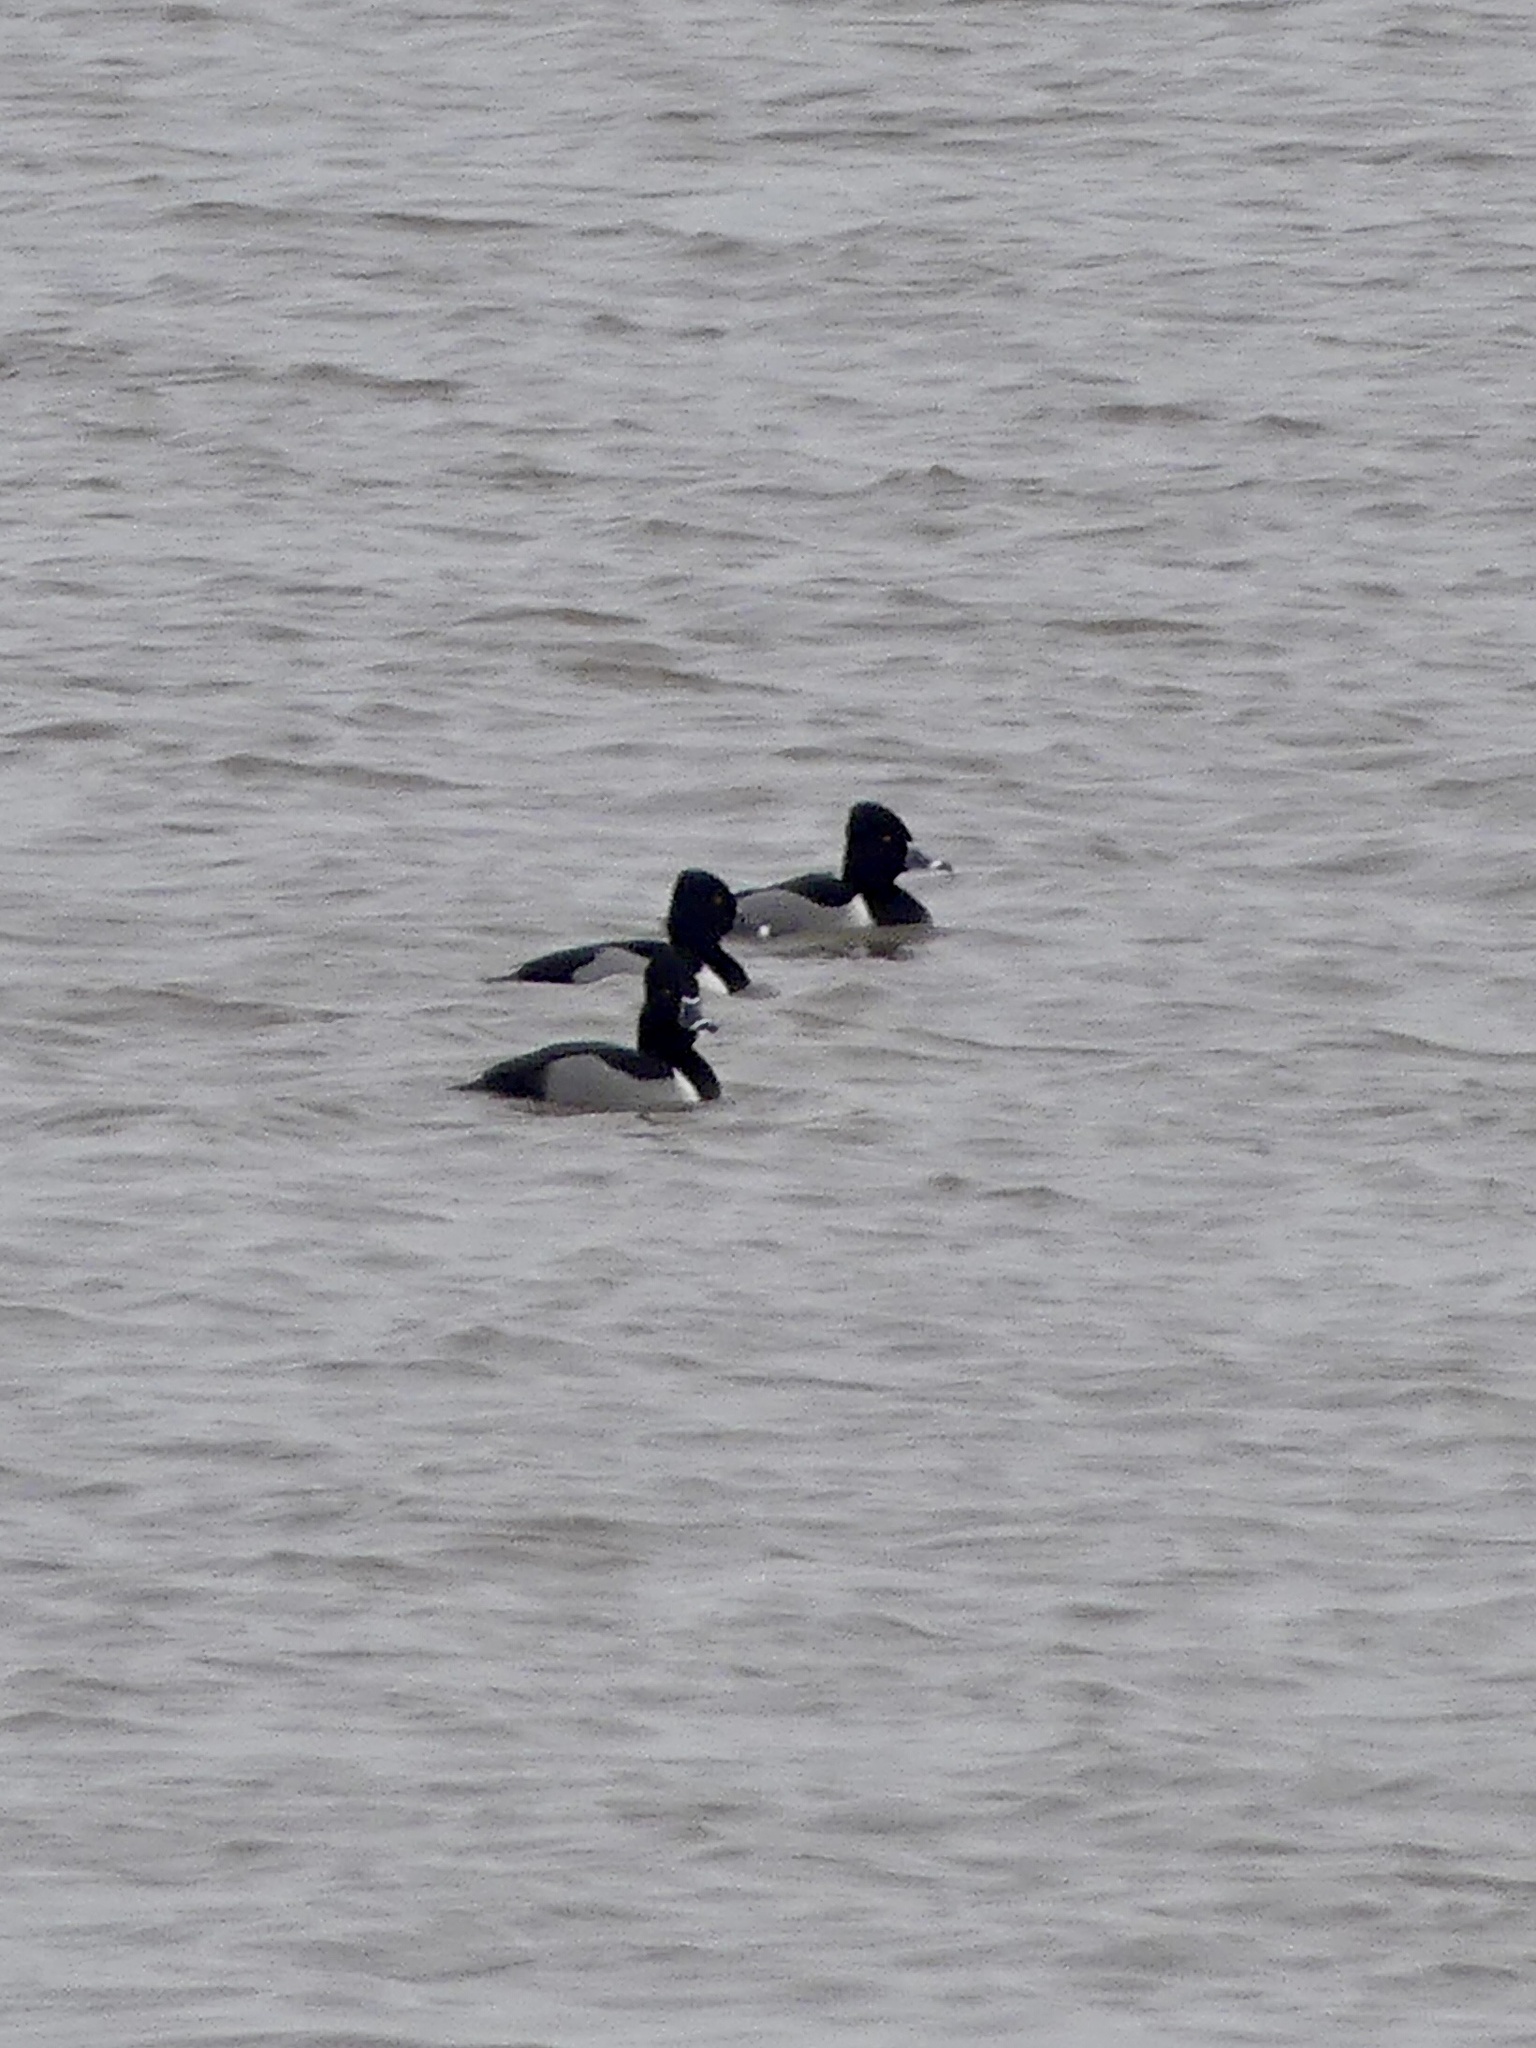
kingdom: Animalia
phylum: Chordata
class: Aves
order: Anseriformes
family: Anatidae
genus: Aythya
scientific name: Aythya collaris
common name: Ring-necked duck
